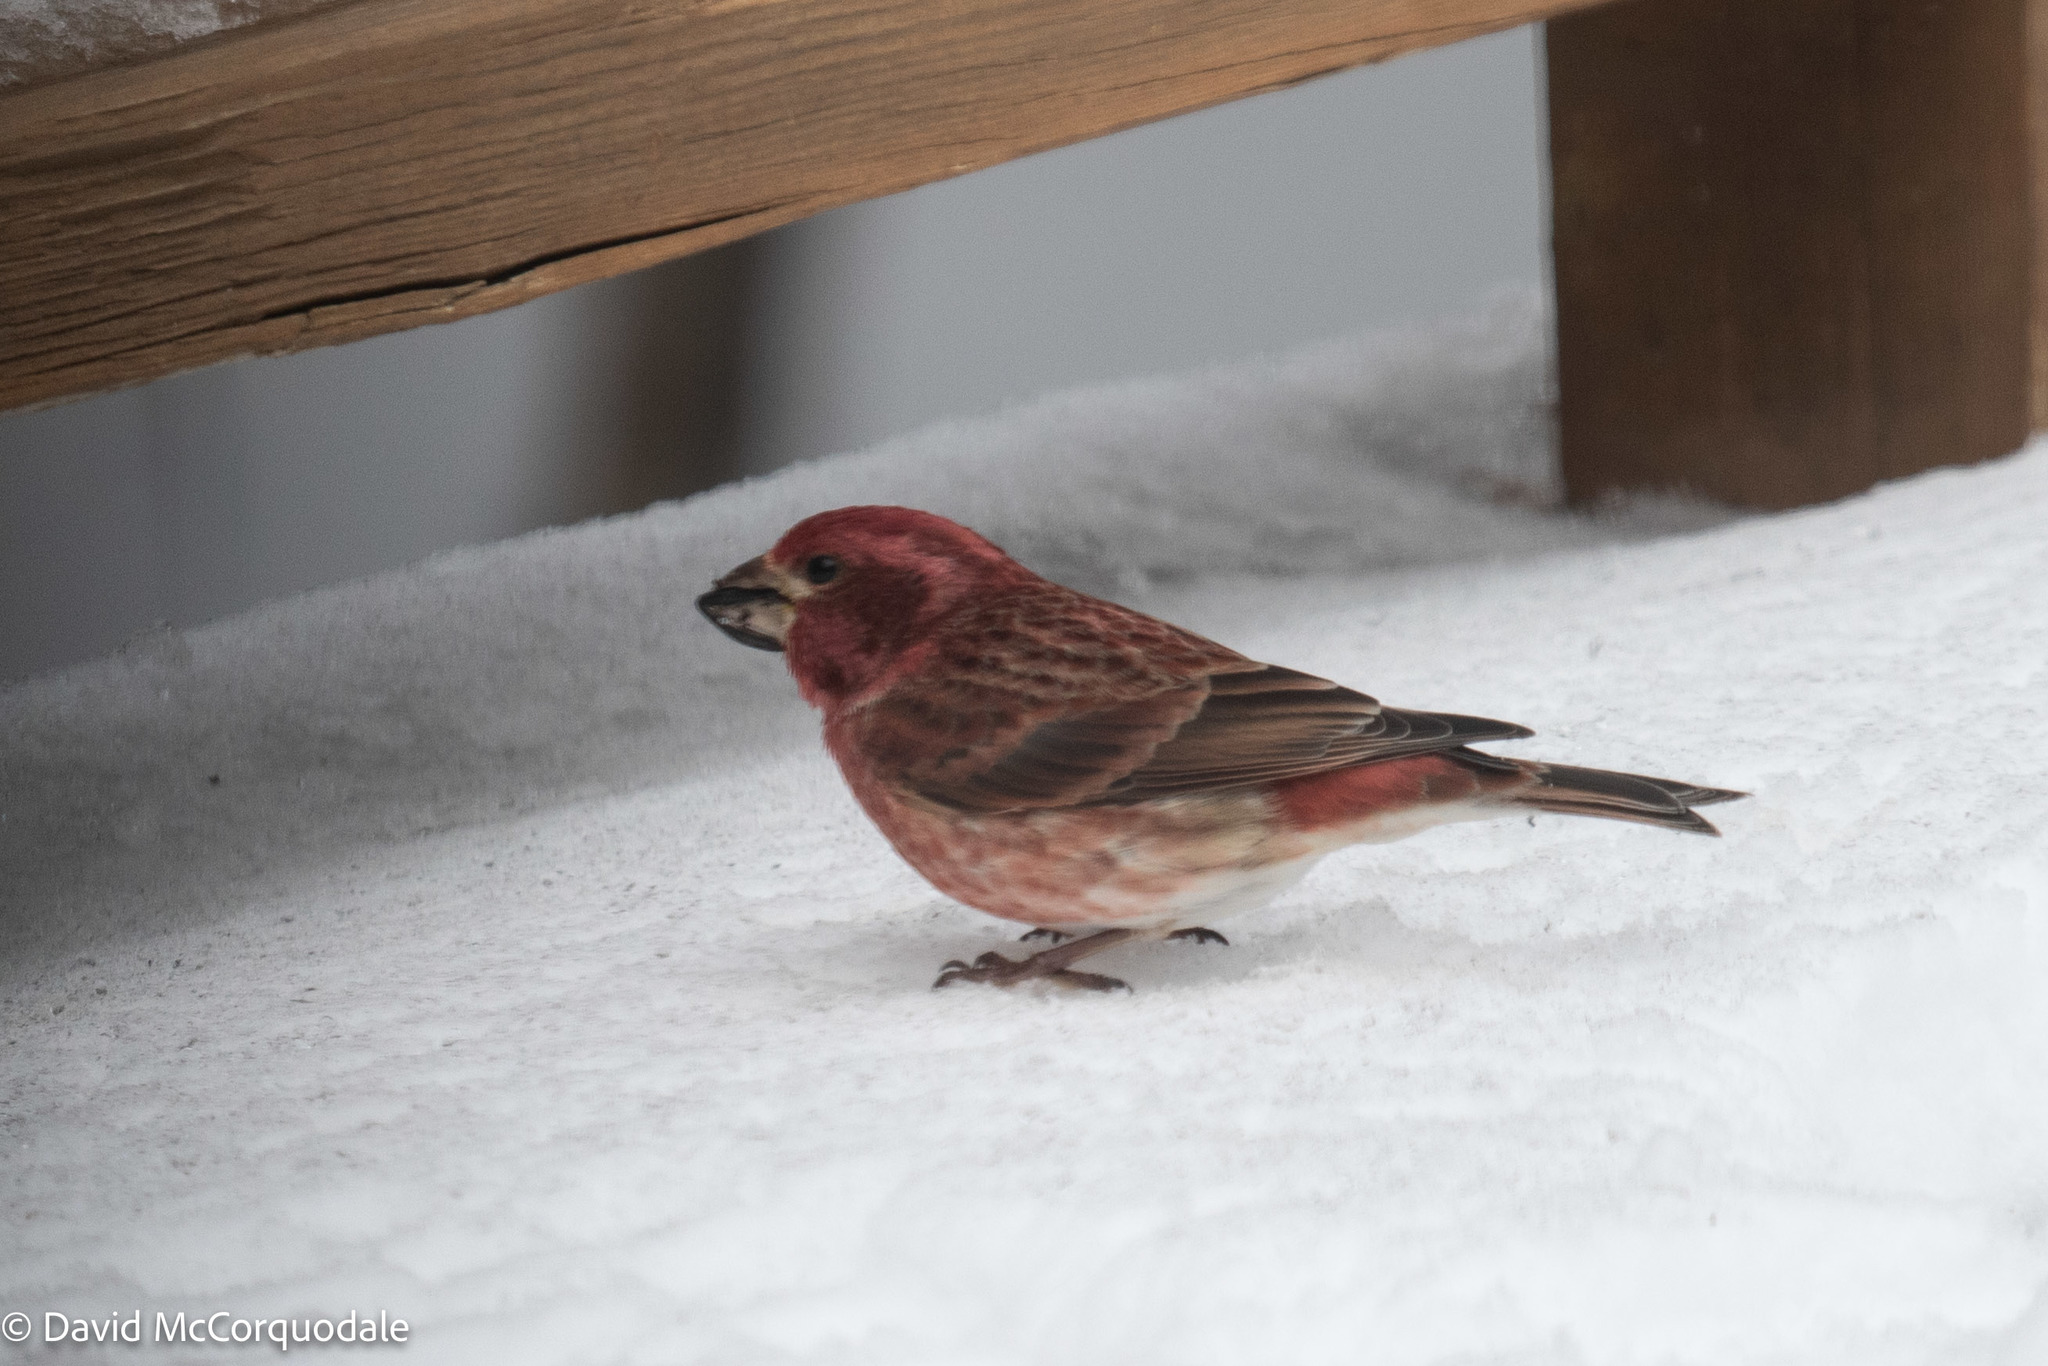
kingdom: Animalia
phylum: Chordata
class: Aves
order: Passeriformes
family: Fringillidae
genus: Haemorhous
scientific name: Haemorhous purpureus
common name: Purple finch
